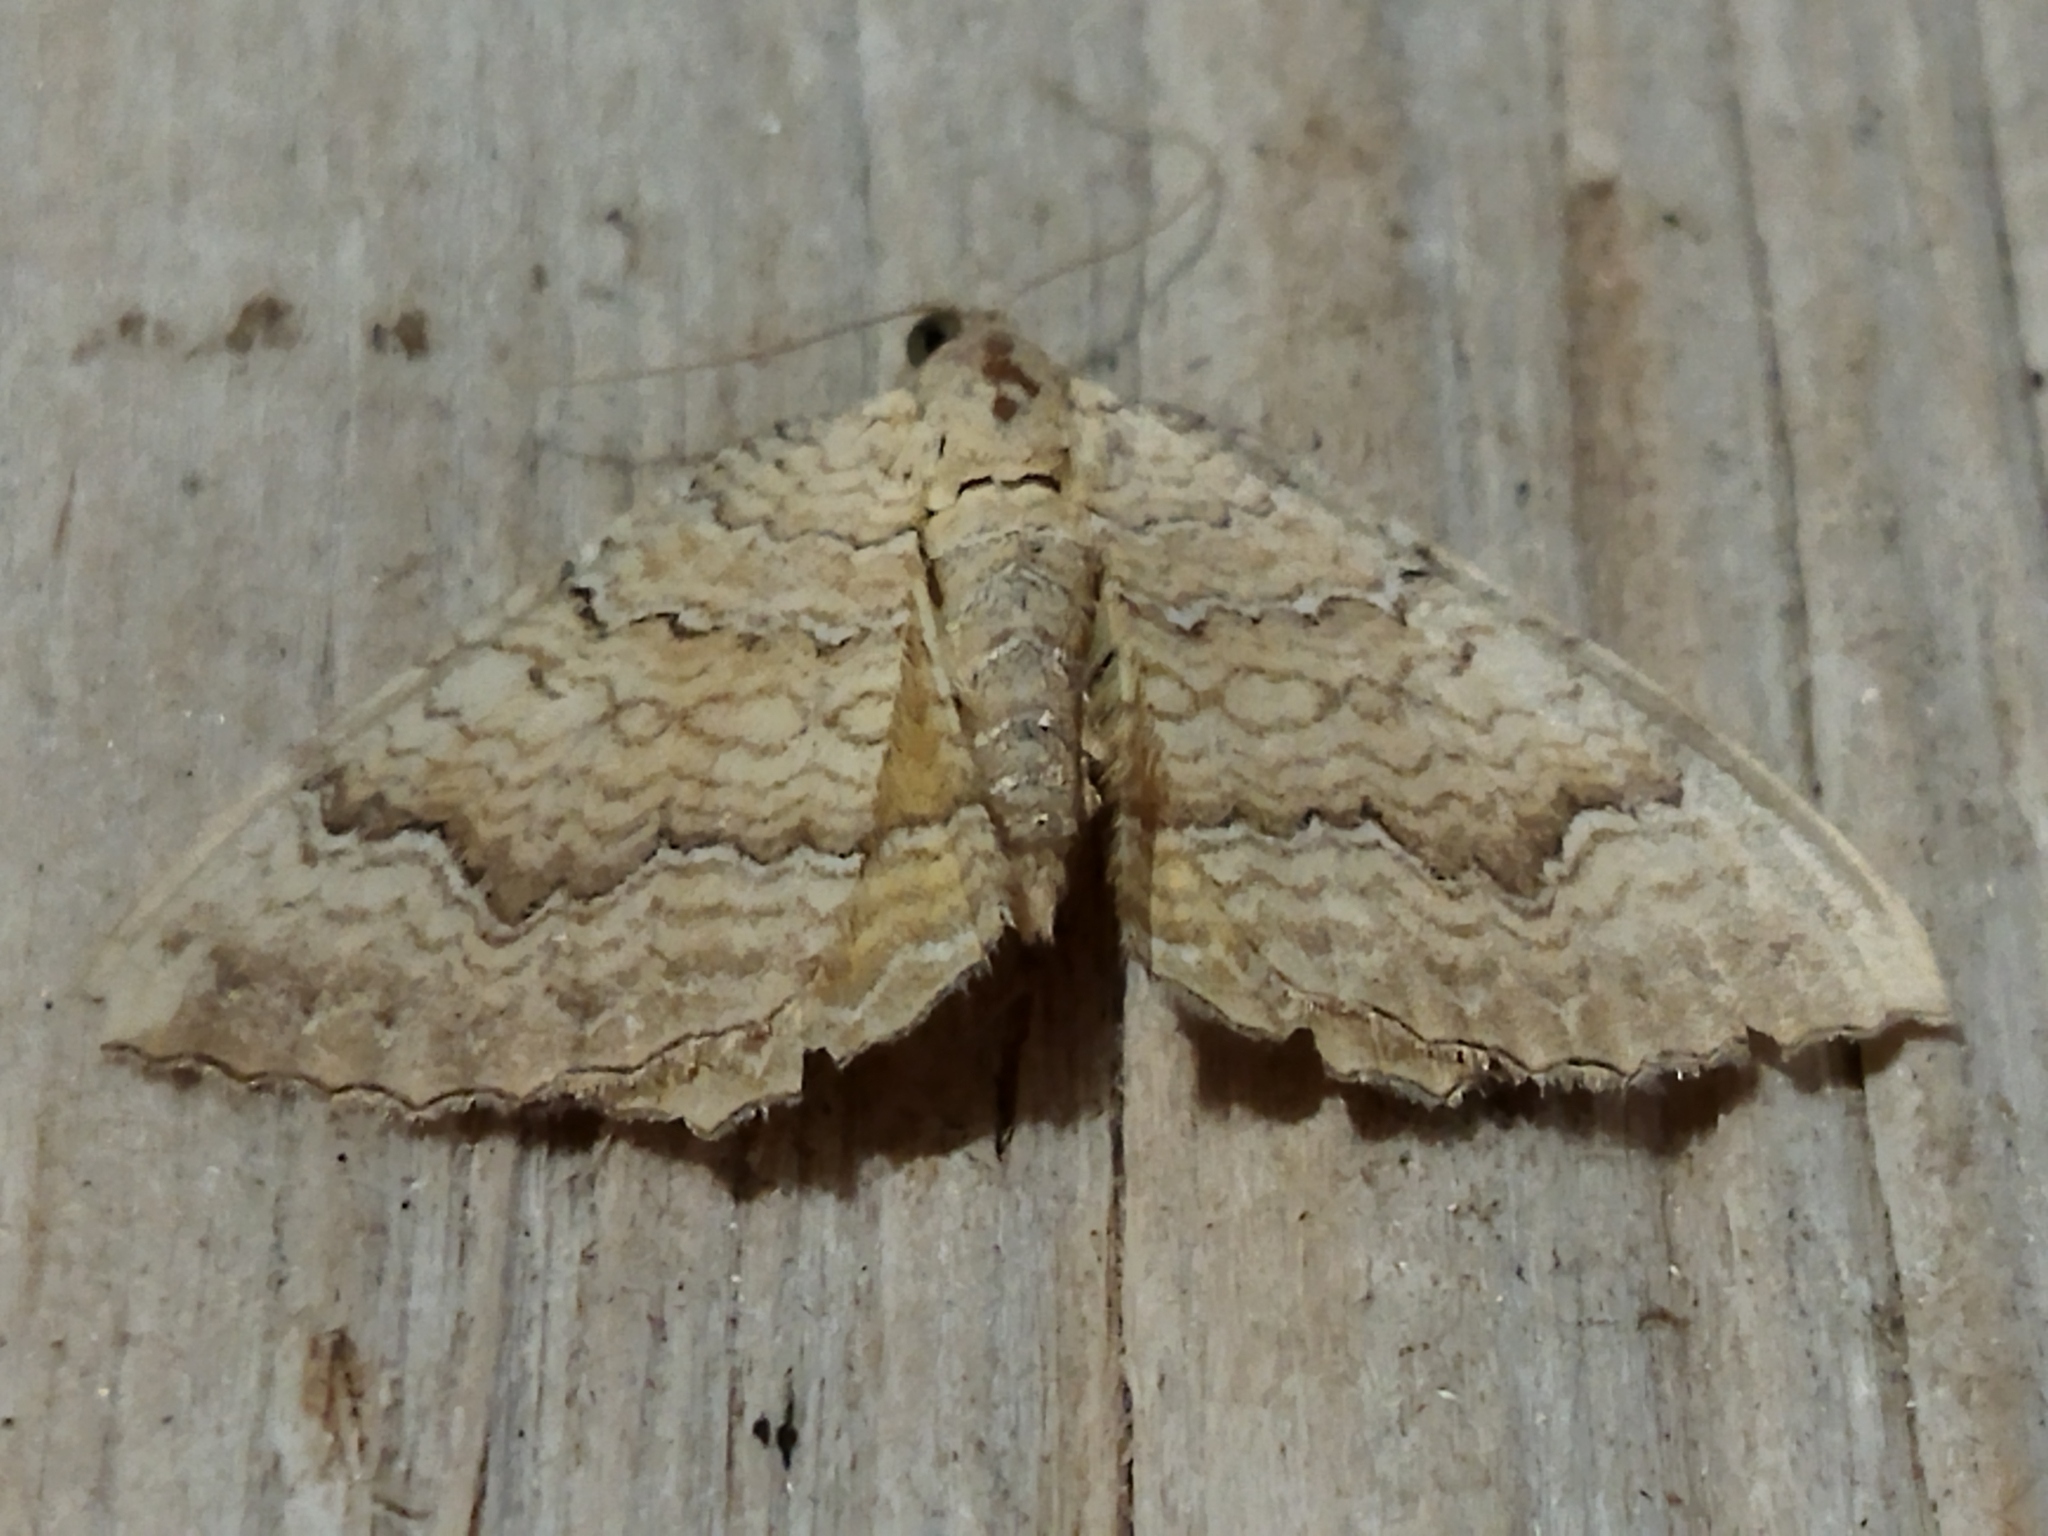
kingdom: Animalia
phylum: Arthropoda
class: Insecta
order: Lepidoptera
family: Geometridae
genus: Camptogramma
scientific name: Camptogramma bilineata
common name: Yellow shell
